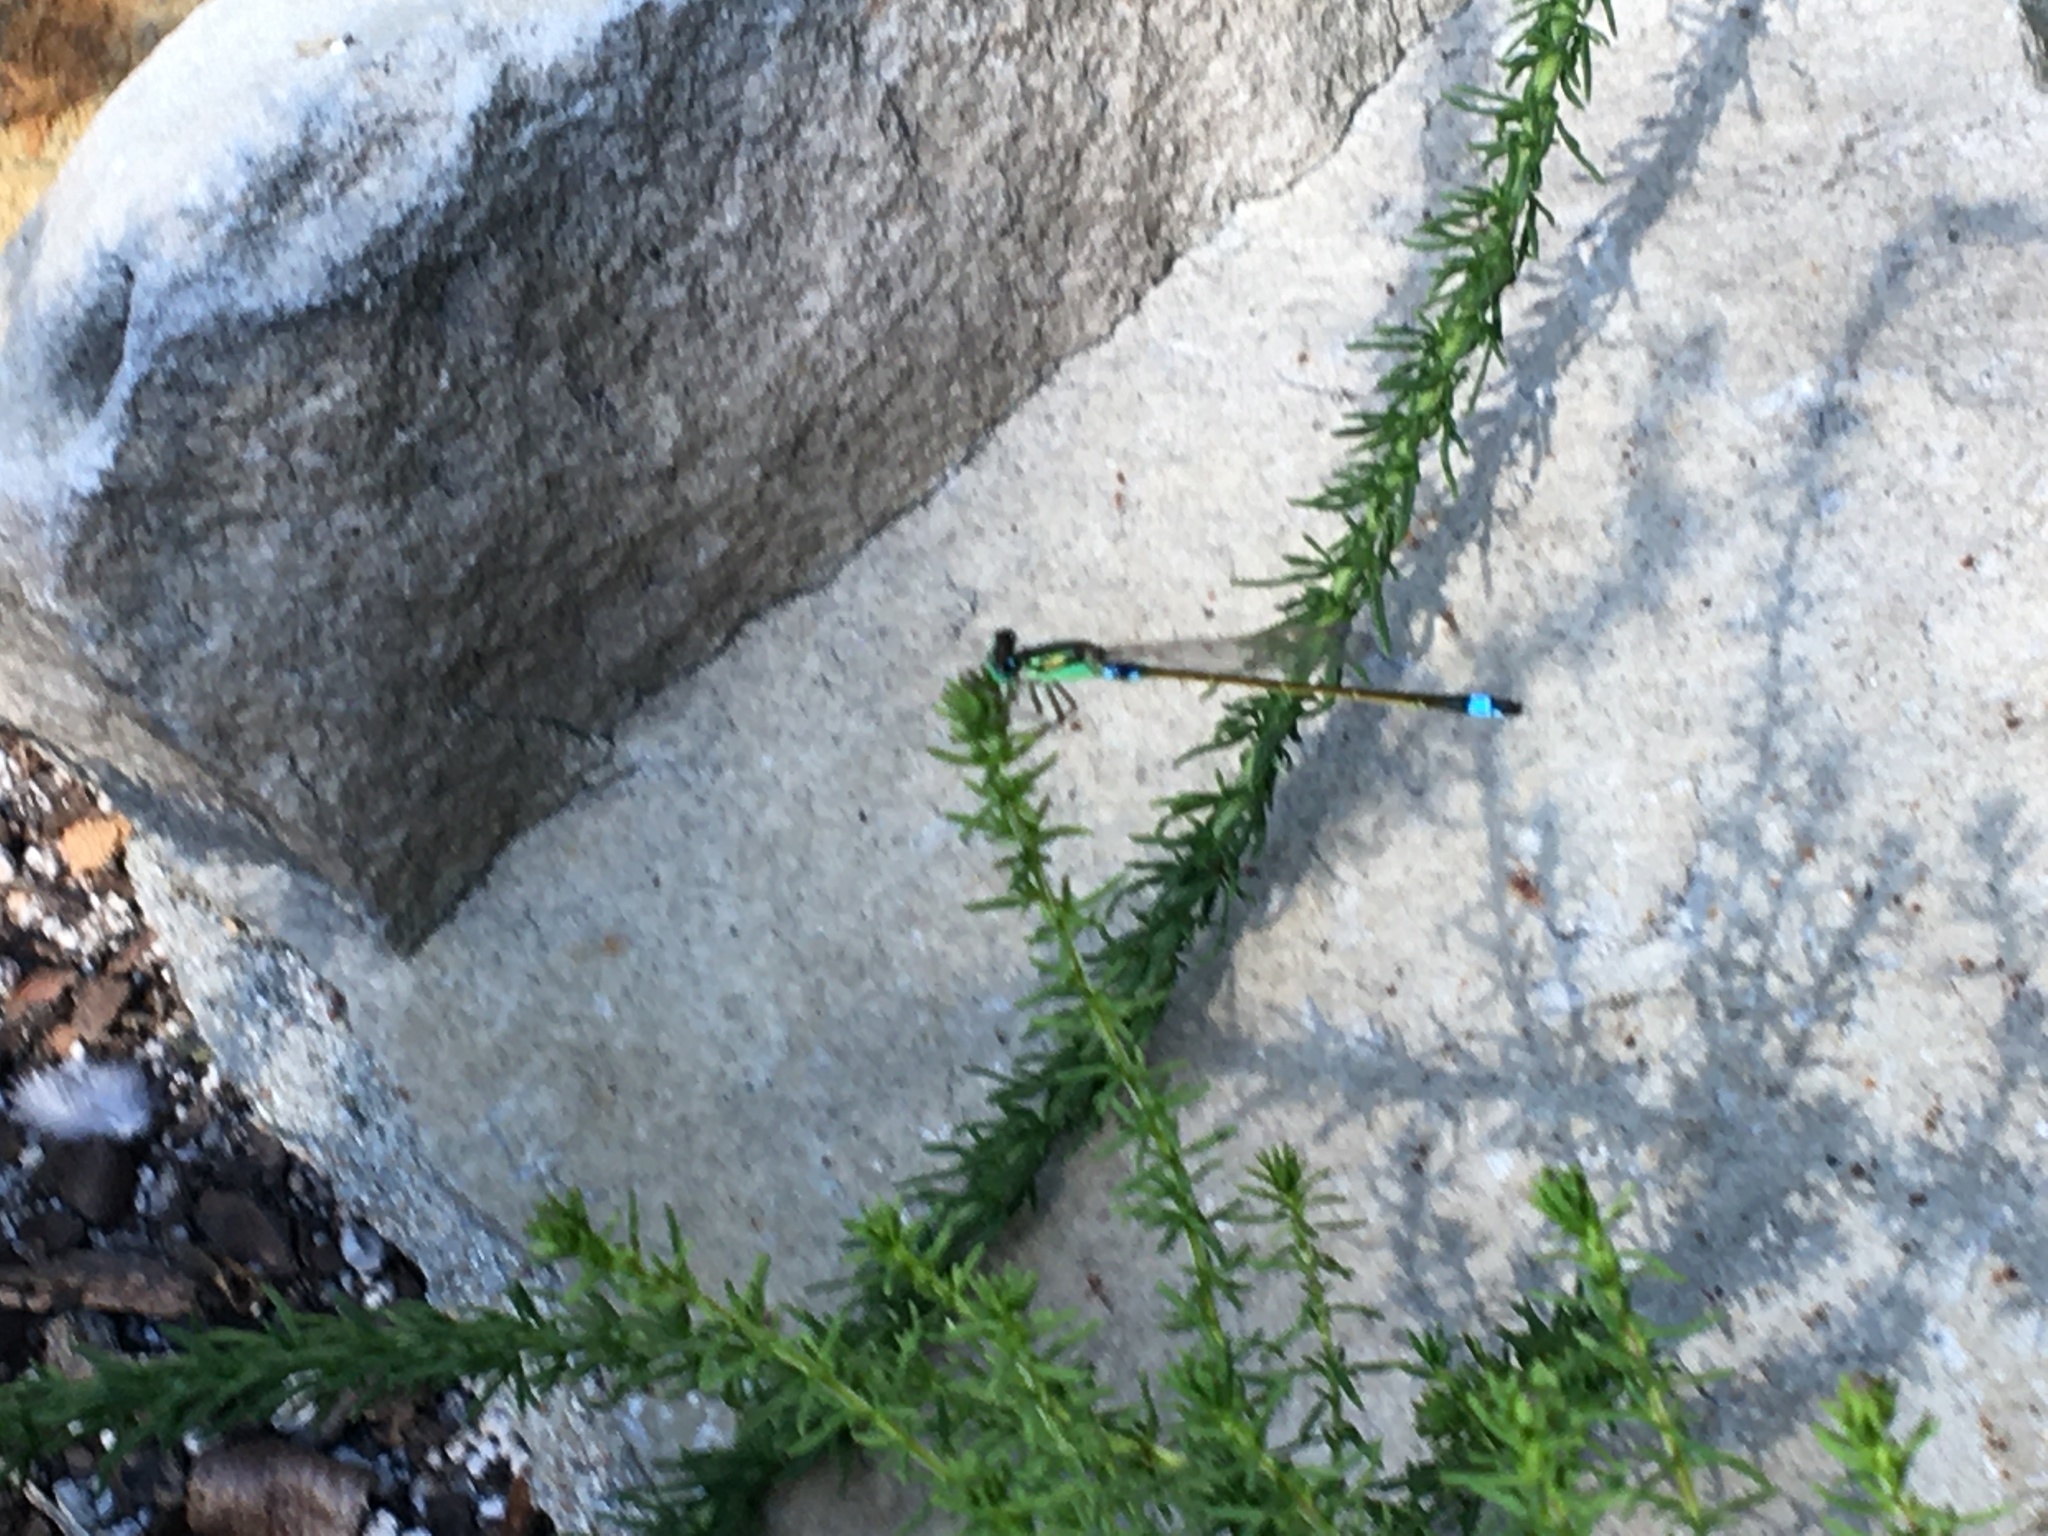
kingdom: Animalia
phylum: Arthropoda
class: Insecta
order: Odonata
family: Coenagrionidae
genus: Ischnura
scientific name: Ischnura senegalensis
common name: Tropical bluetail
